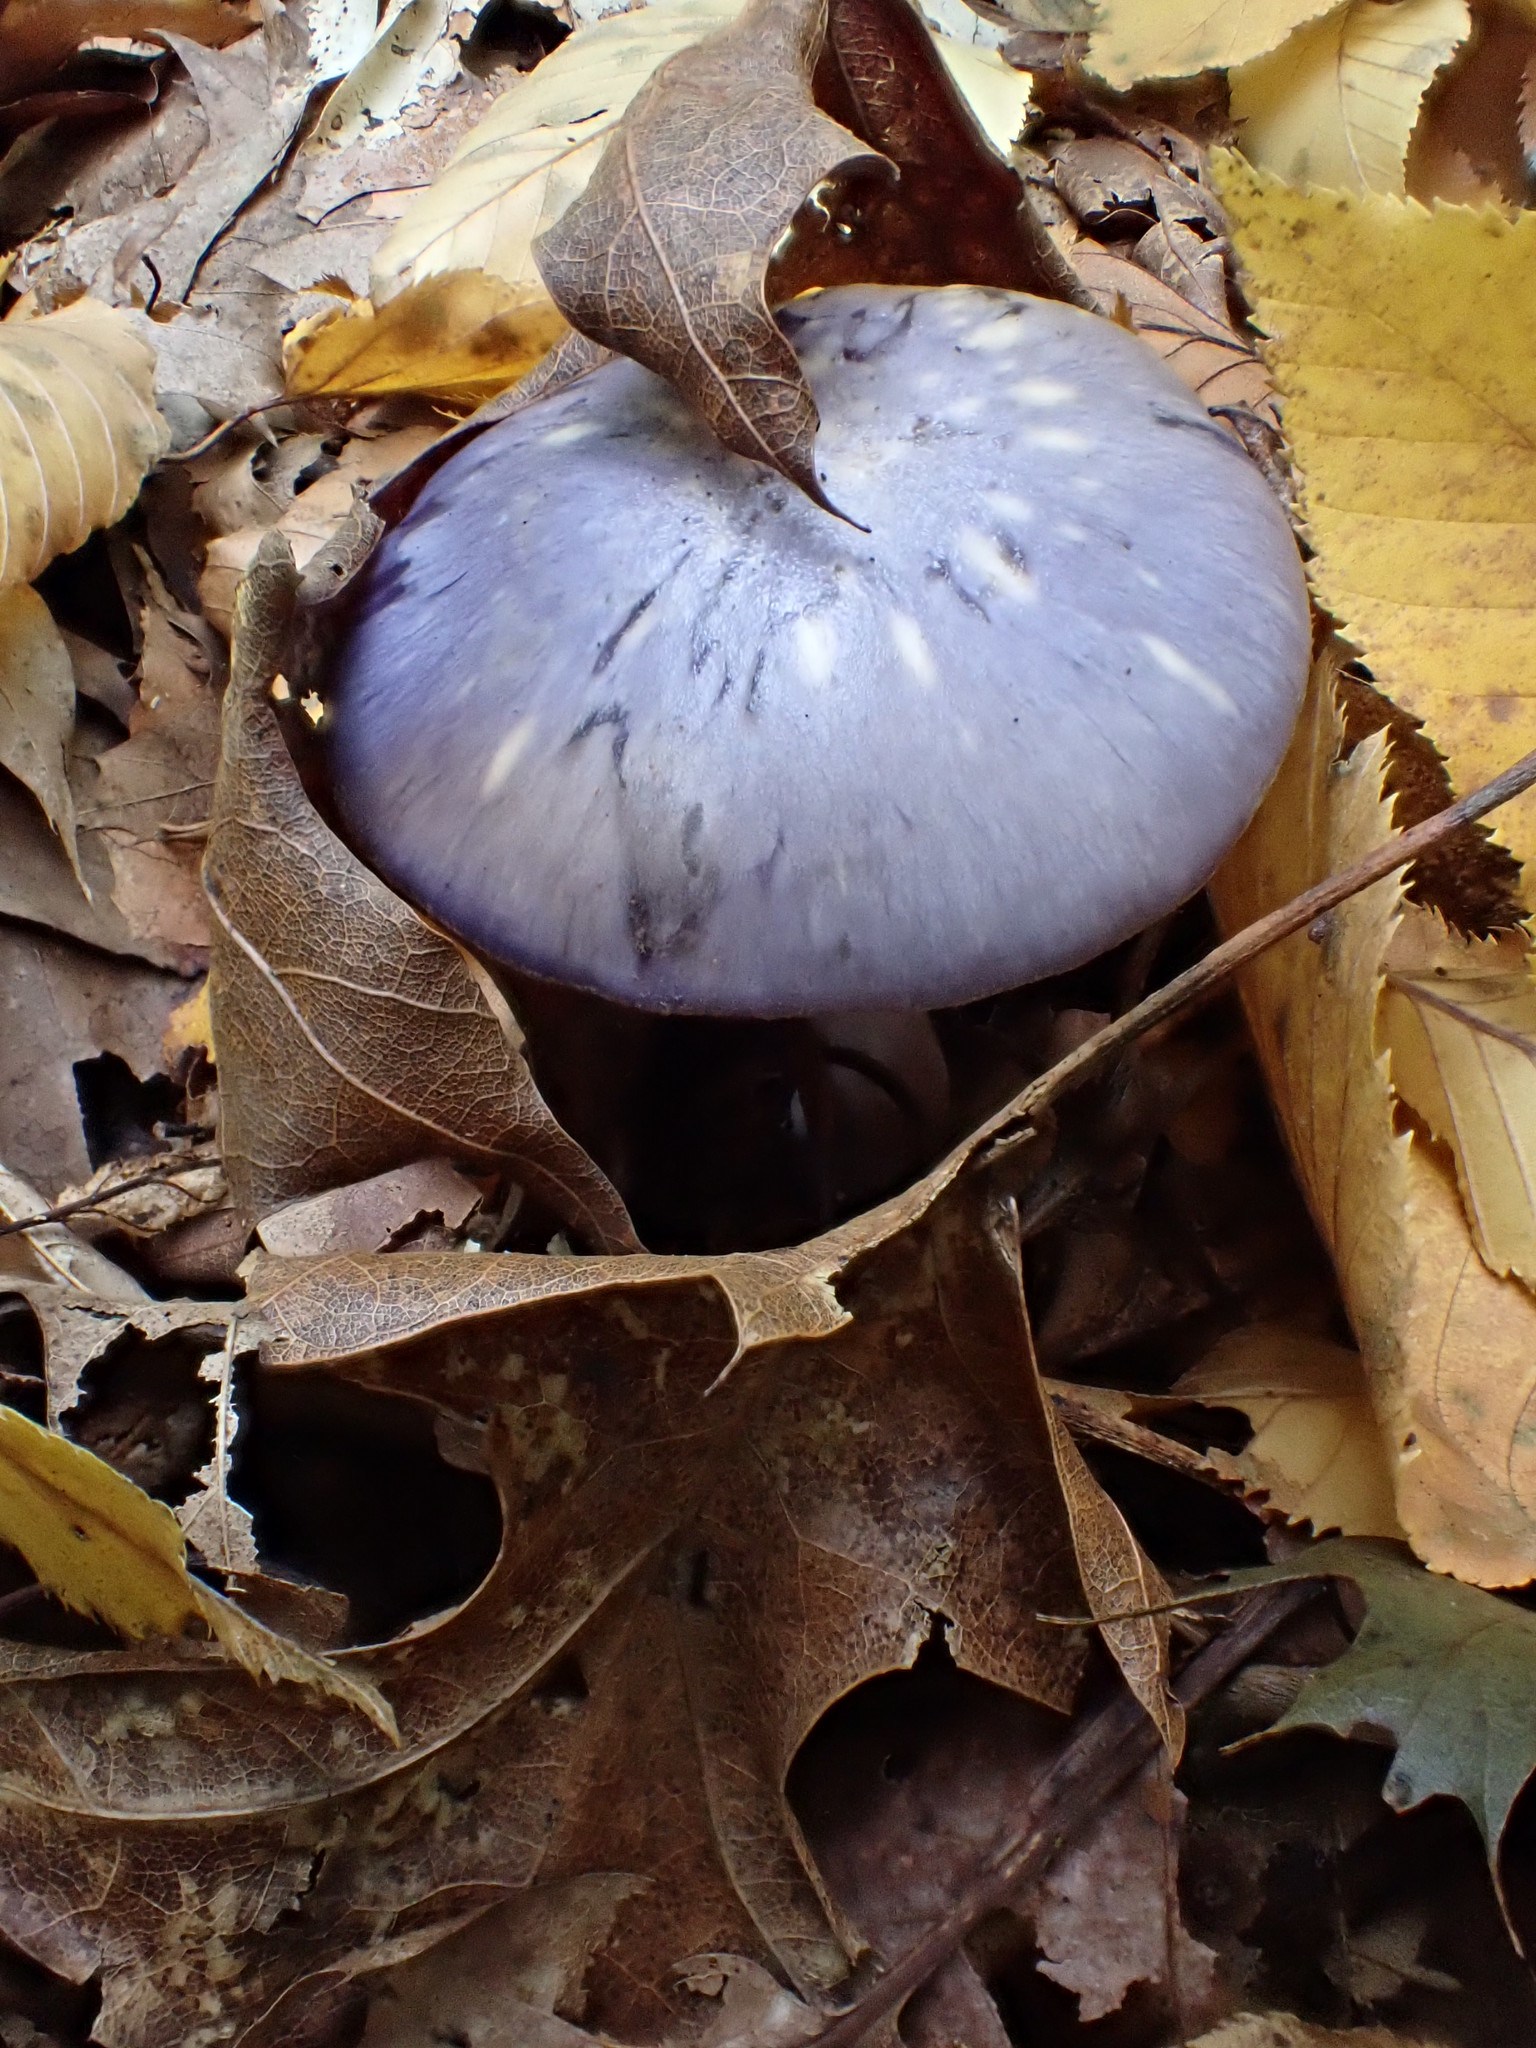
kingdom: Fungi
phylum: Basidiomycota
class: Agaricomycetes
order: Agaricales
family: Cortinariaceae
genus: Cortinarius
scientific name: Cortinarius iodes
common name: Viscid violet cort
